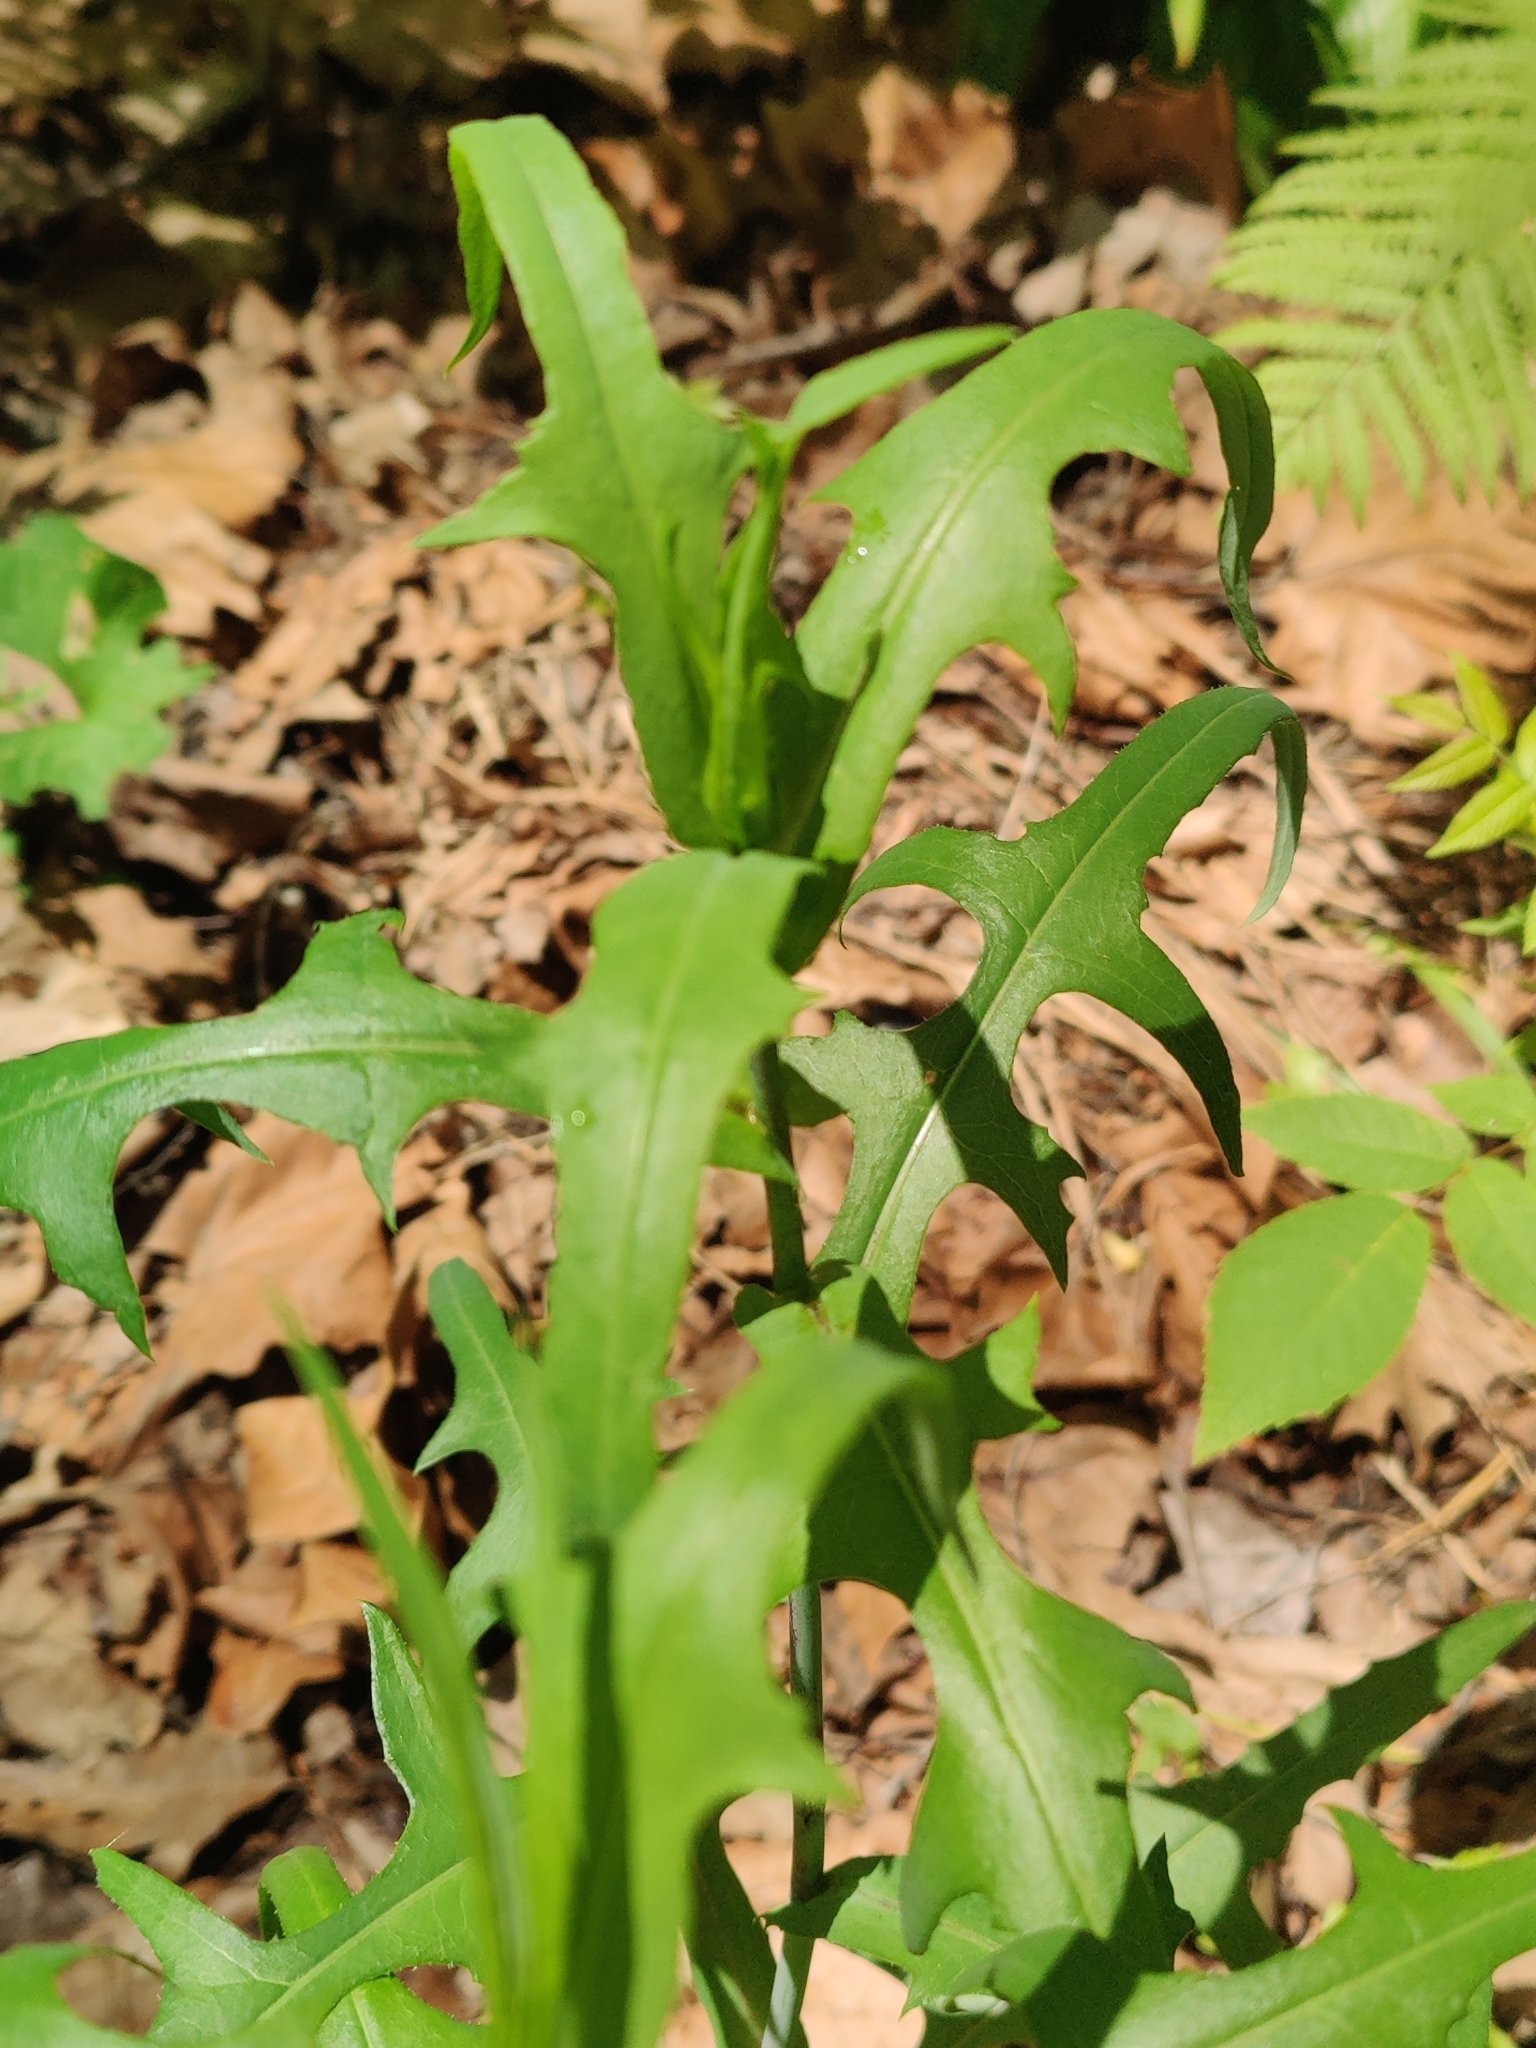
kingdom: Plantae
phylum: Tracheophyta
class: Magnoliopsida
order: Asterales
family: Asteraceae
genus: Lactuca
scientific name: Lactuca canadensis
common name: Canada lettuce
